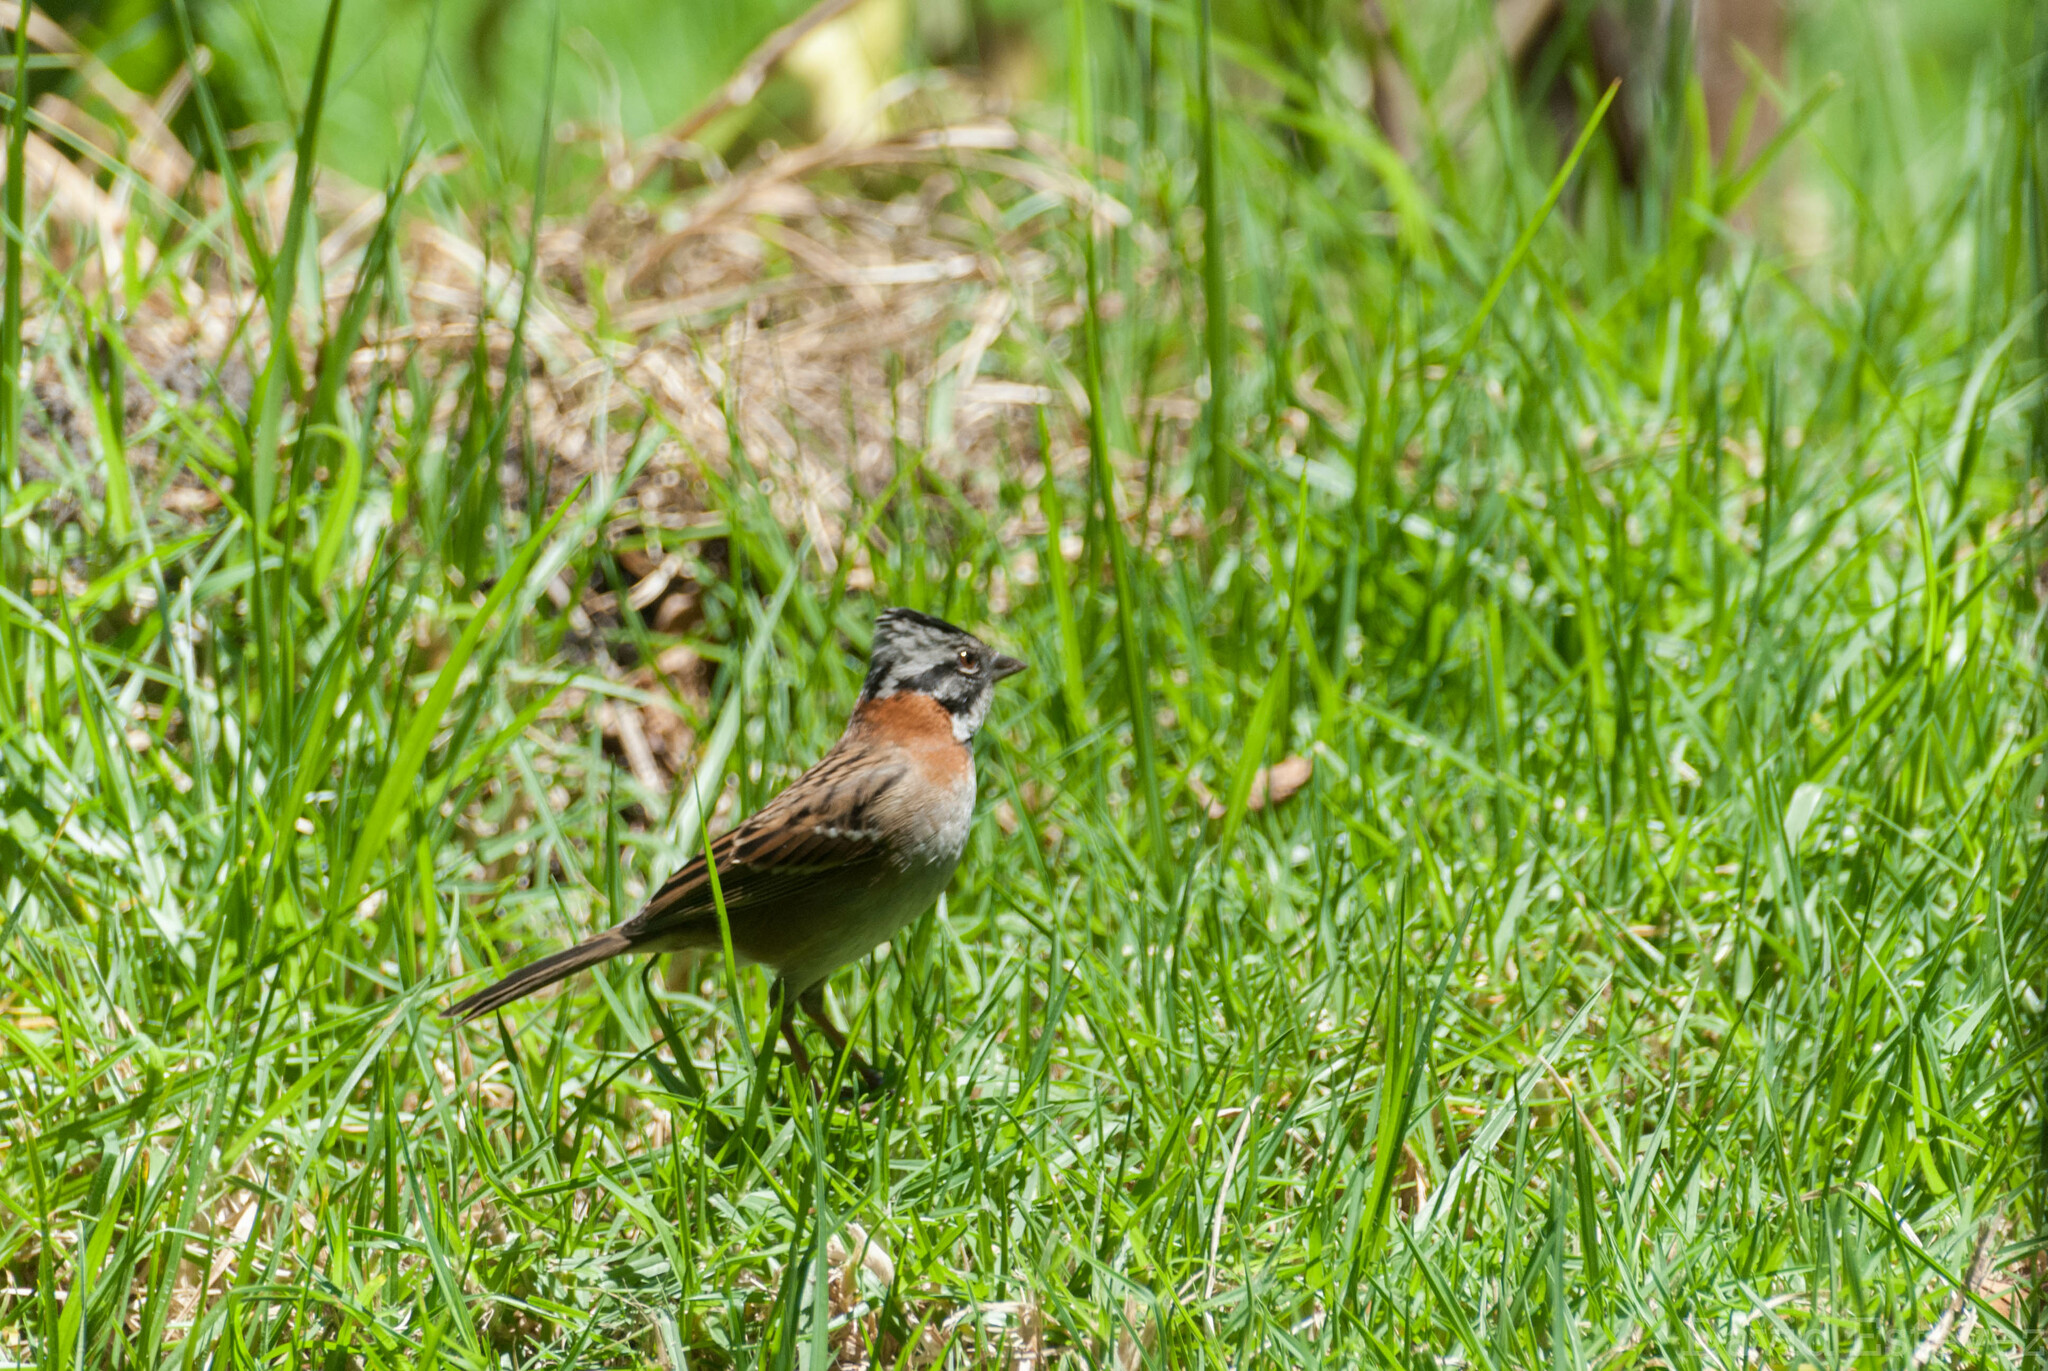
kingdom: Animalia
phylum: Chordata
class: Aves
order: Passeriformes
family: Passerellidae
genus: Zonotrichia
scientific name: Zonotrichia capensis
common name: Rufous-collared sparrow
